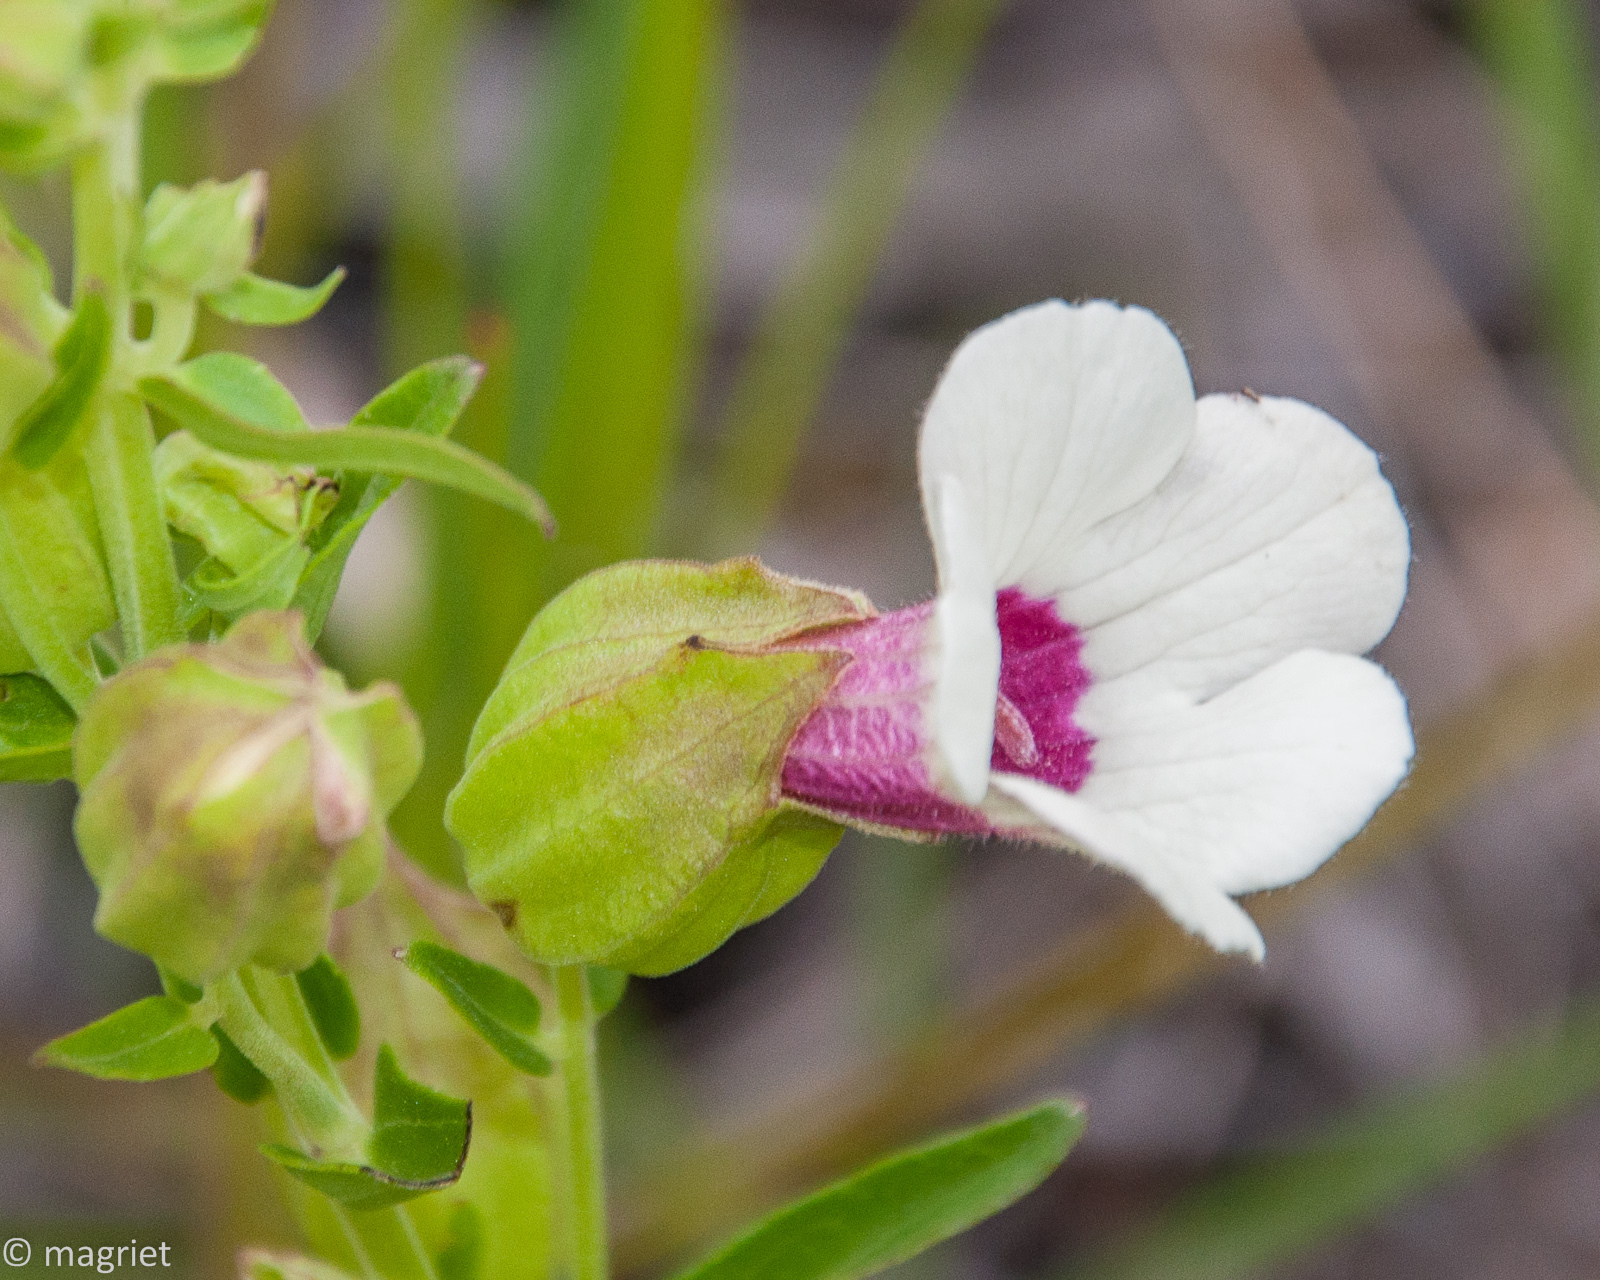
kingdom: Plantae
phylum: Tracheophyta
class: Magnoliopsida
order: Lamiales
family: Orobanchaceae
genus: Melasma
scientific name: Melasma scabrum
